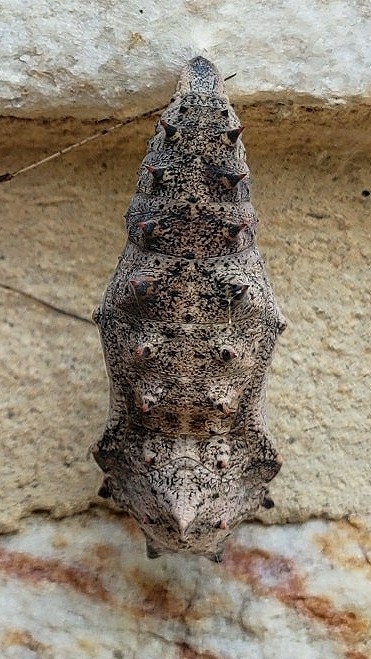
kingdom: Animalia
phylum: Arthropoda
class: Insecta
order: Lepidoptera
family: Nymphalidae
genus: Nymphalis
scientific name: Nymphalis antiopa
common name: Camberwell beauty
